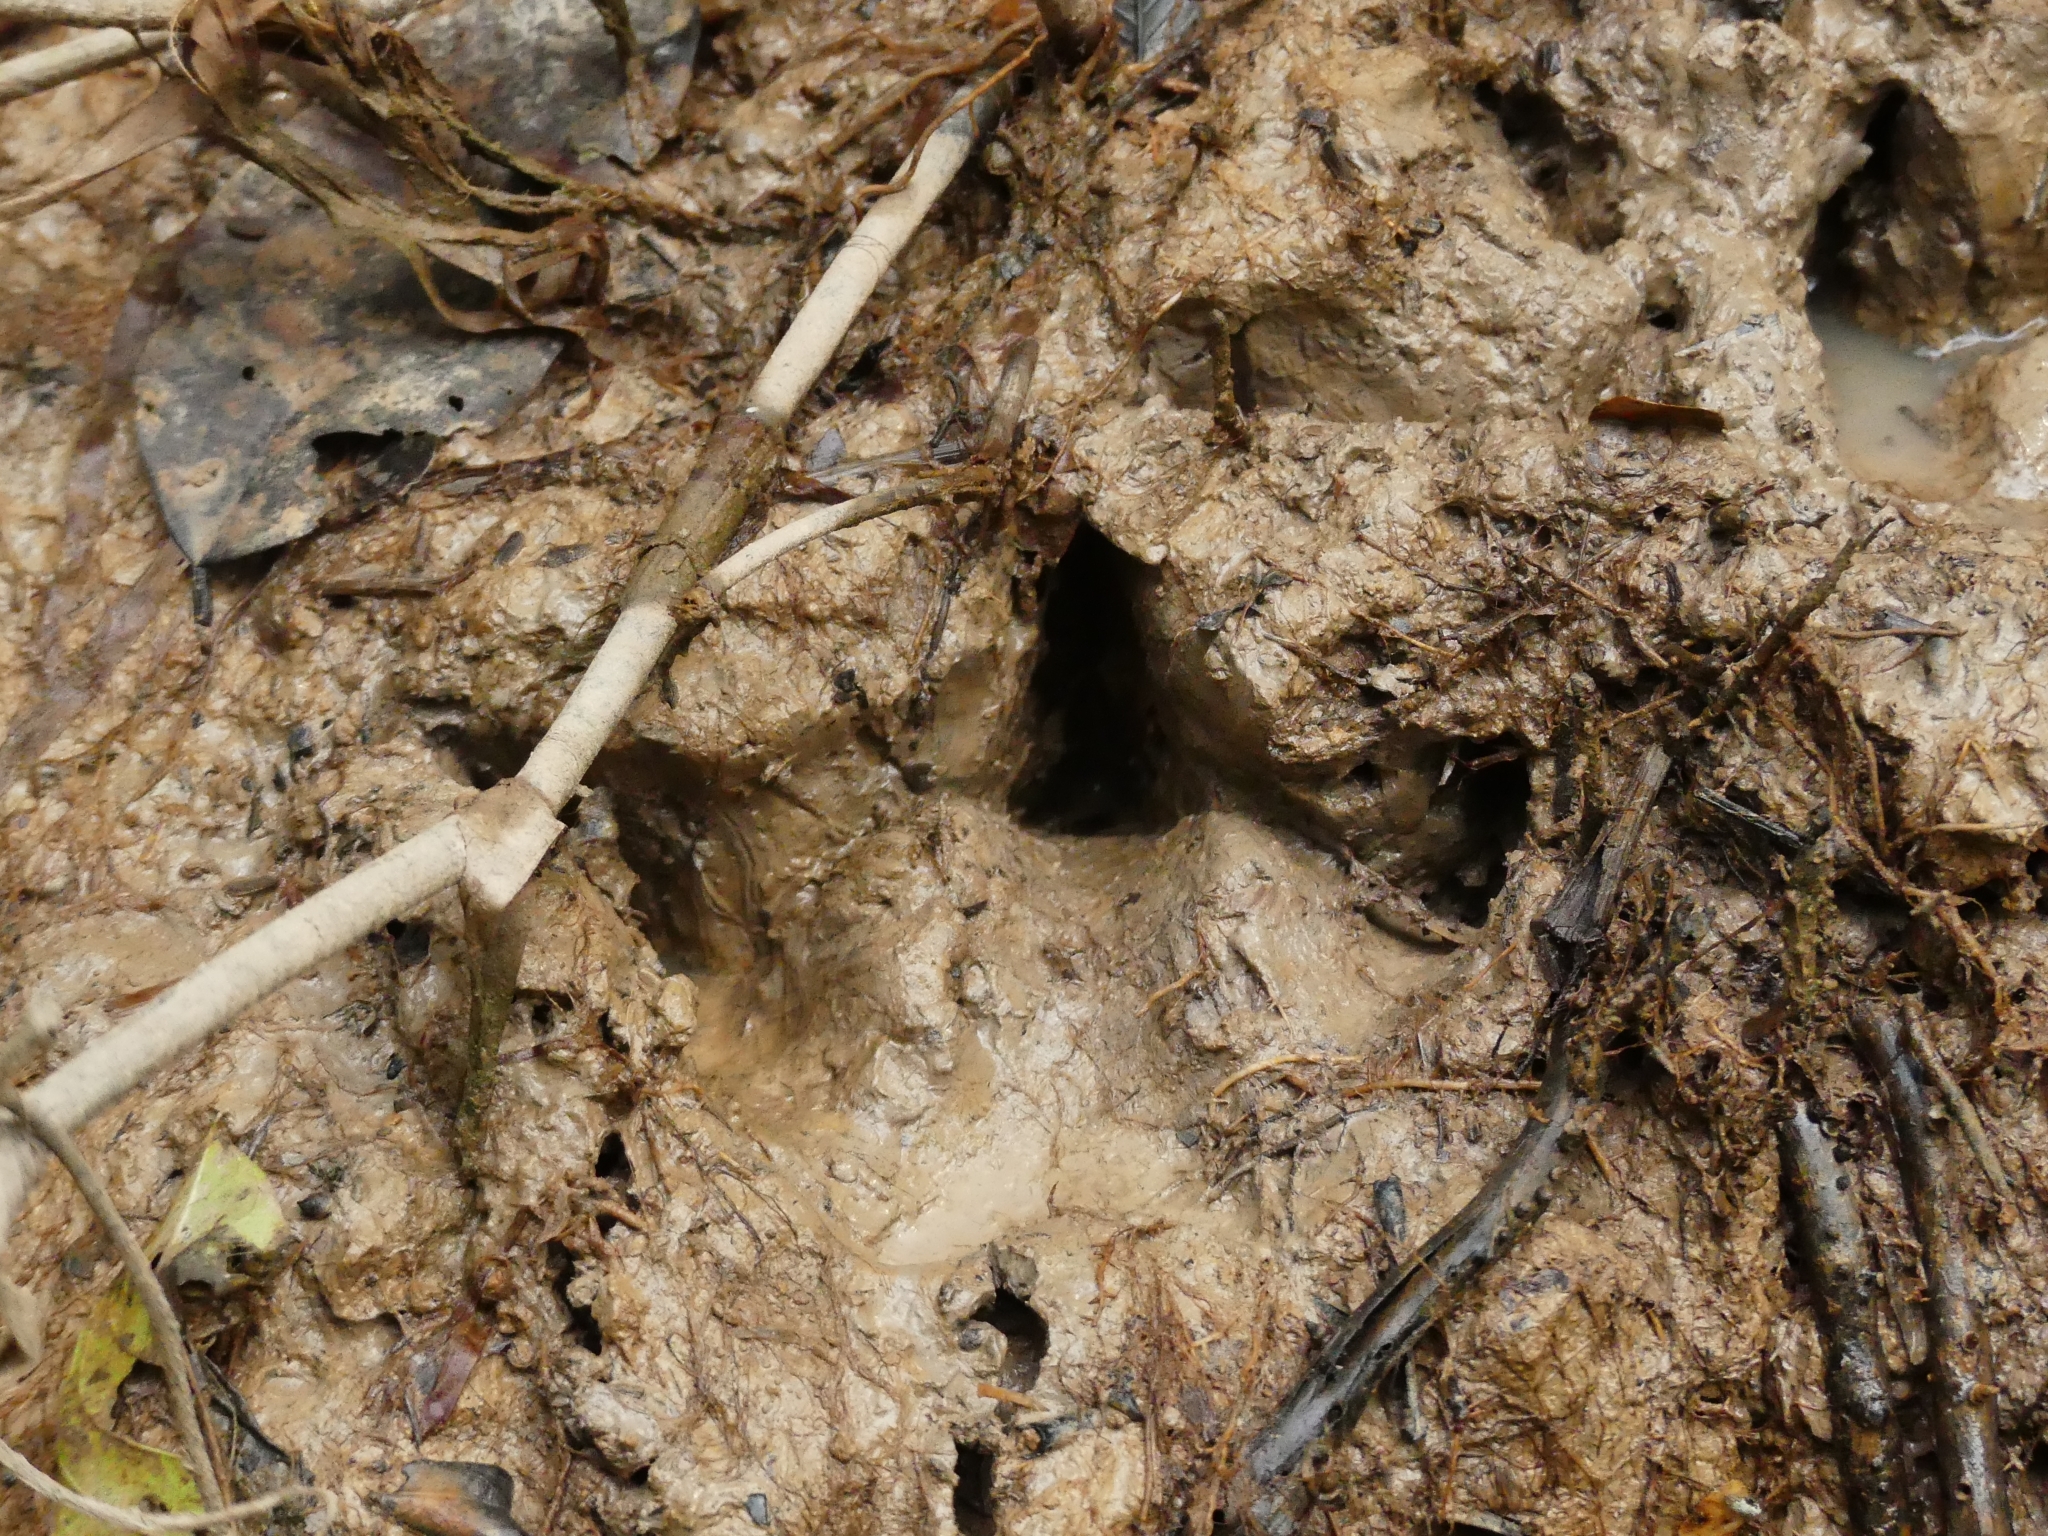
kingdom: Animalia
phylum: Chordata
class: Mammalia
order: Perissodactyla
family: Tapiridae
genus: Tapirus
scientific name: Tapirus terrestris
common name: Brazilian tapir
